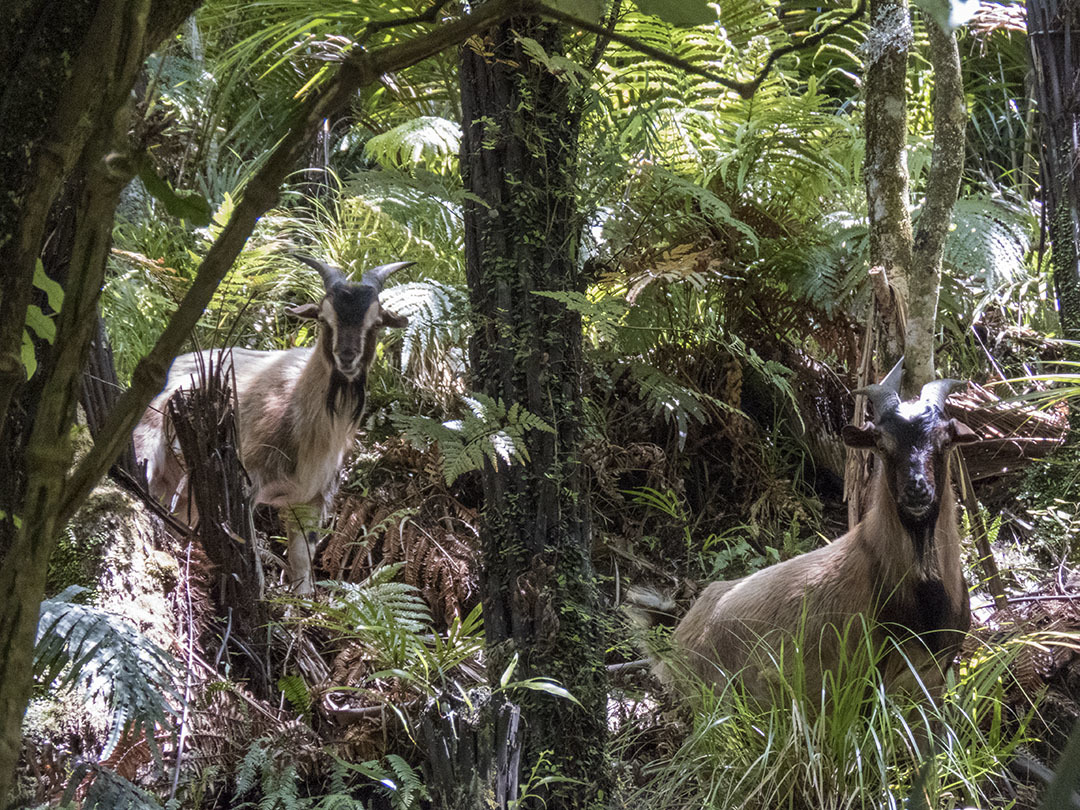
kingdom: Animalia
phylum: Chordata
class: Mammalia
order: Artiodactyla
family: Bovidae
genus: Capra
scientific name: Capra hircus
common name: Domestic goat
